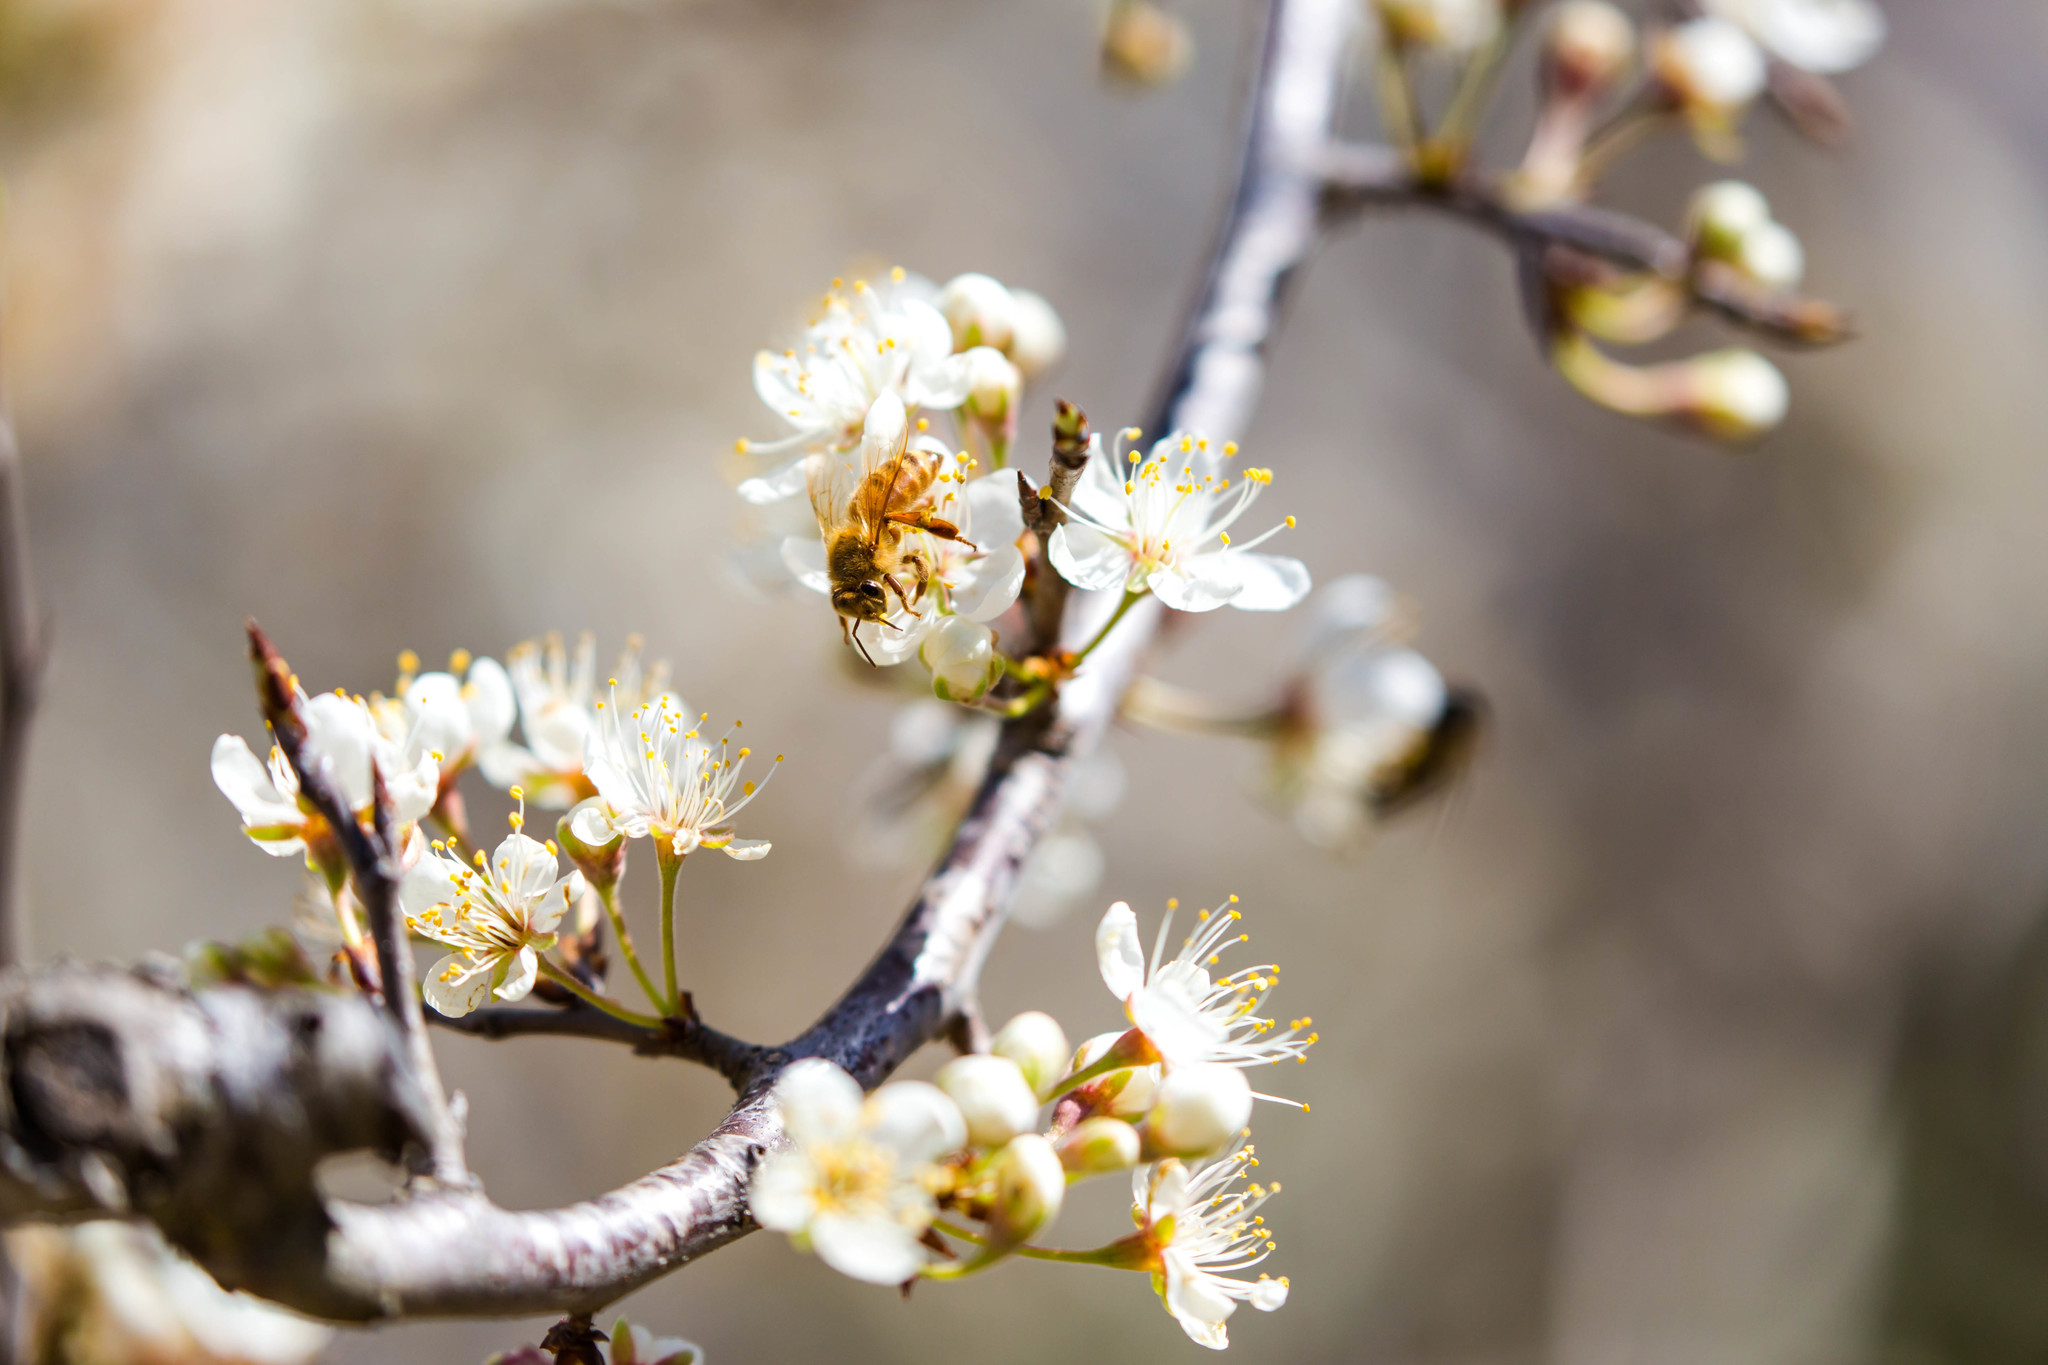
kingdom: Animalia
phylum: Arthropoda
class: Insecta
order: Hymenoptera
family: Apidae
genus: Apis
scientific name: Apis mellifera
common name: Honey bee
